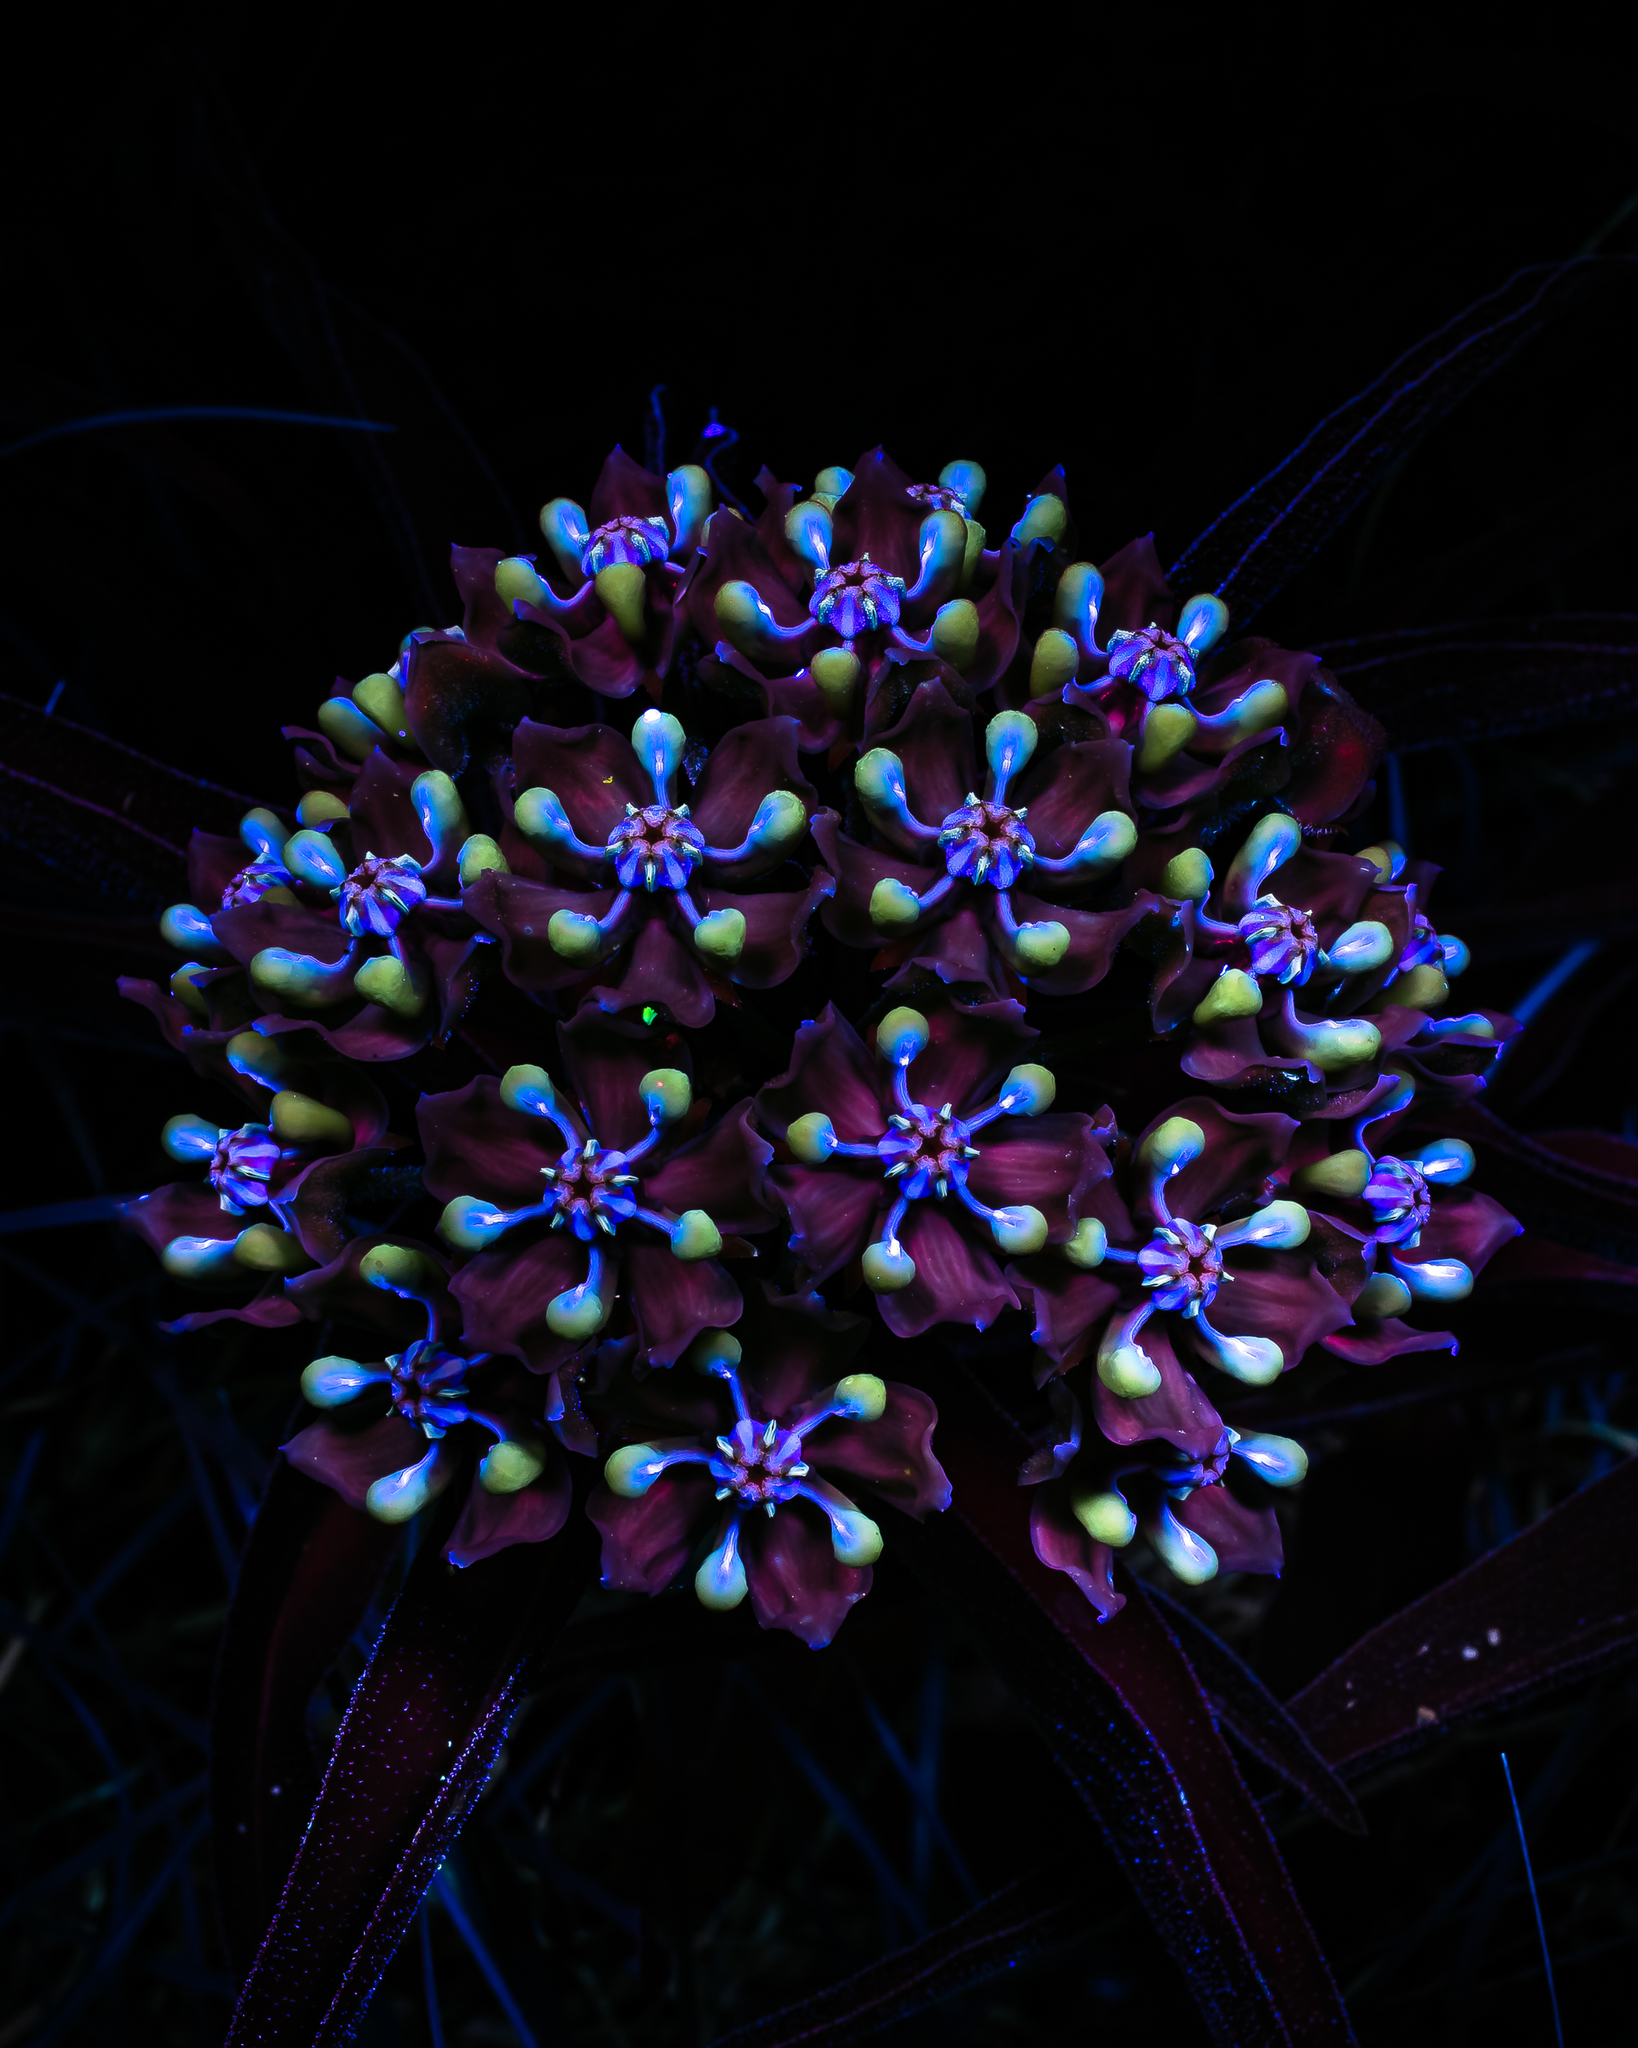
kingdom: Plantae
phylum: Tracheophyta
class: Magnoliopsida
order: Gentianales
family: Apocynaceae
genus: Asclepias
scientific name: Asclepias asperula
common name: Antelope horns
